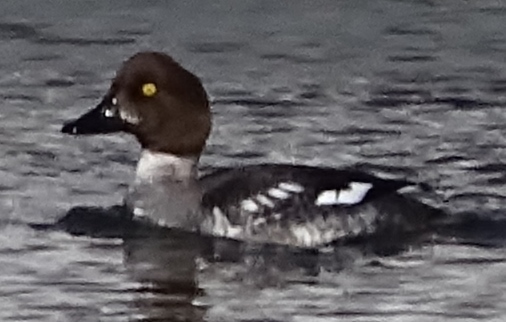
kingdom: Animalia
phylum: Chordata
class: Aves
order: Anseriformes
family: Anatidae
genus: Bucephala
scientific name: Bucephala clangula
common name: Common goldeneye
